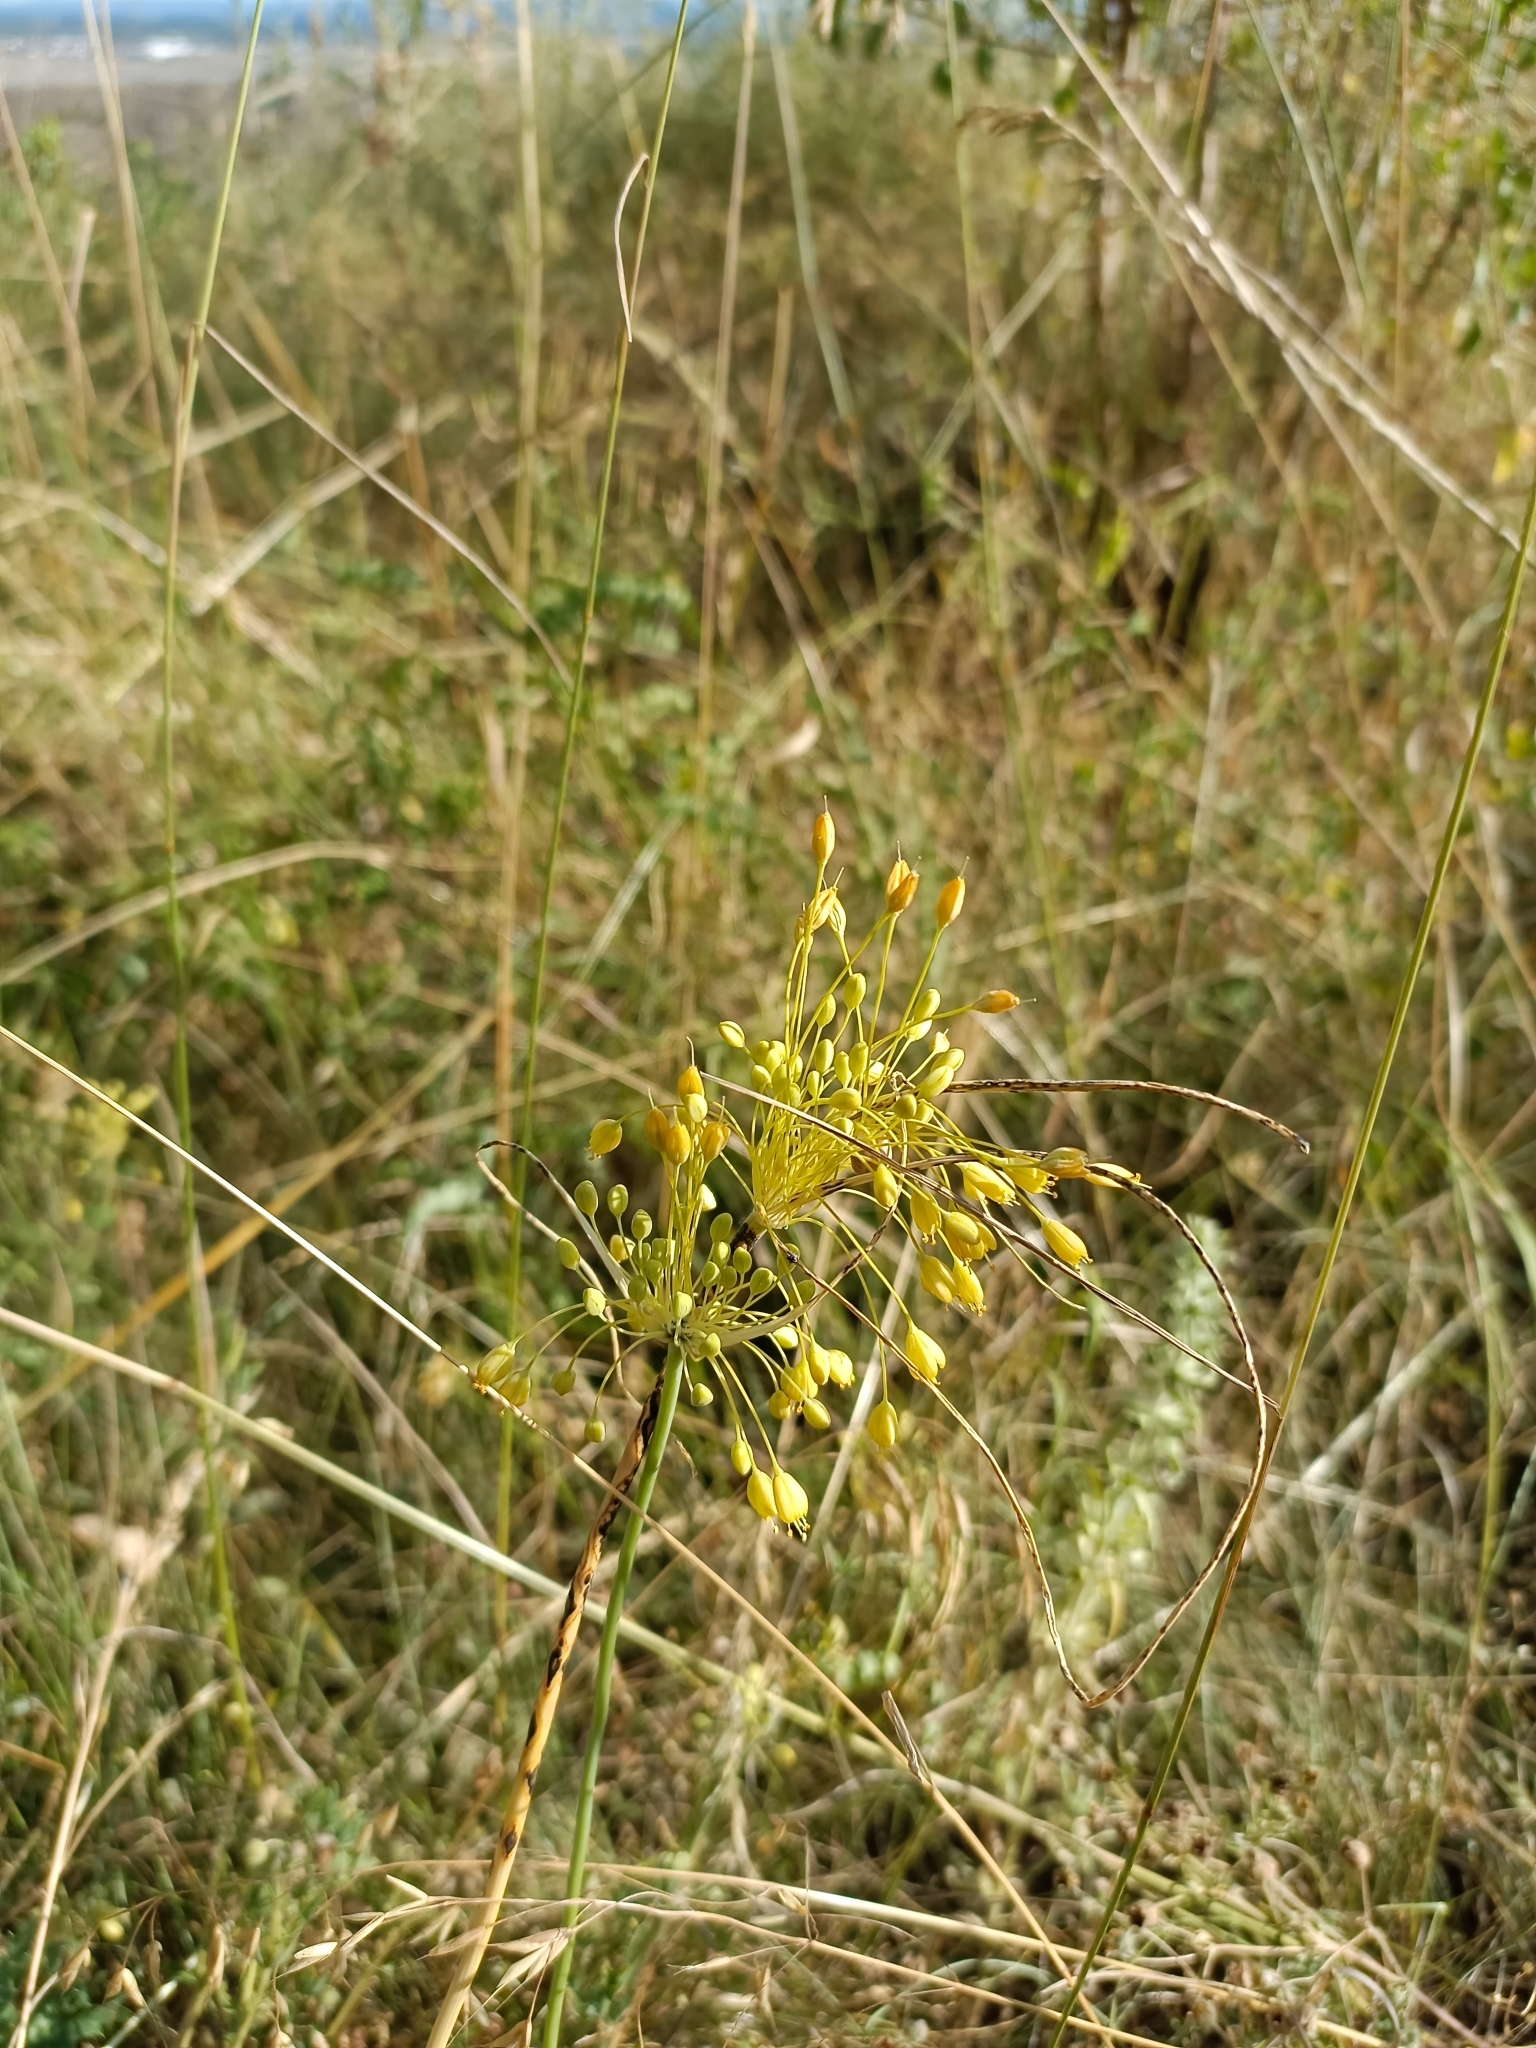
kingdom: Plantae
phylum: Tracheophyta
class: Liliopsida
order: Asparagales
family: Amaryllidaceae
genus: Allium
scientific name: Allium flavum
